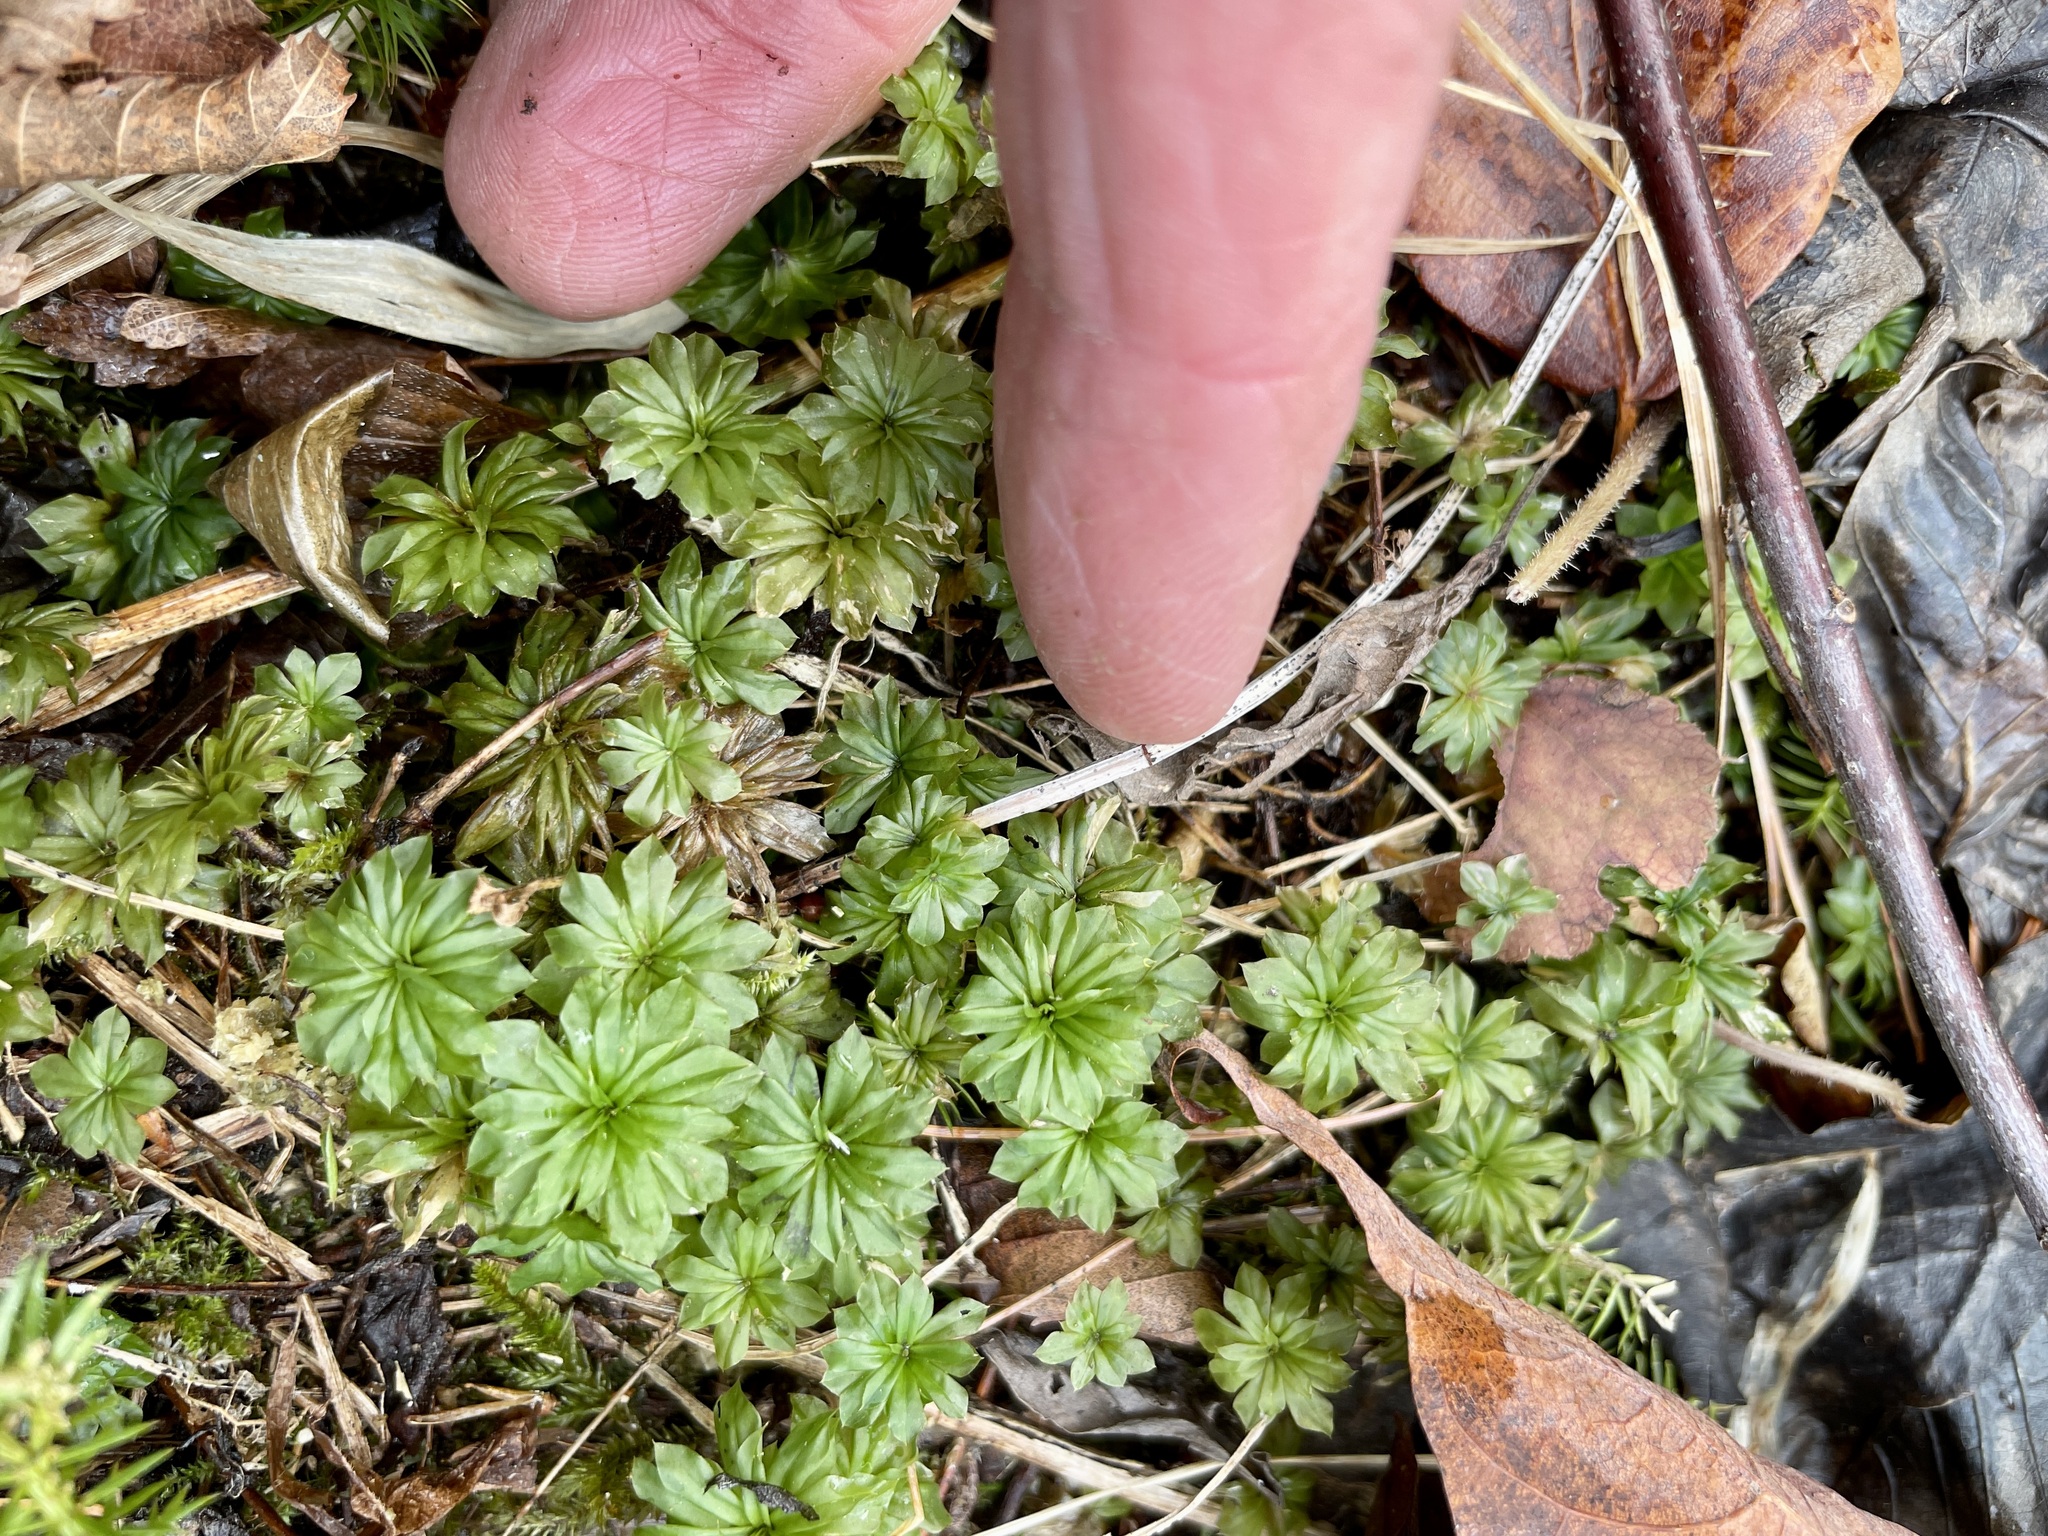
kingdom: Plantae
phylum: Bryophyta
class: Bryopsida
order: Bryales
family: Bryaceae
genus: Rhodobryum
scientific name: Rhodobryum ontariense
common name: Ontario rhodobryum moss
